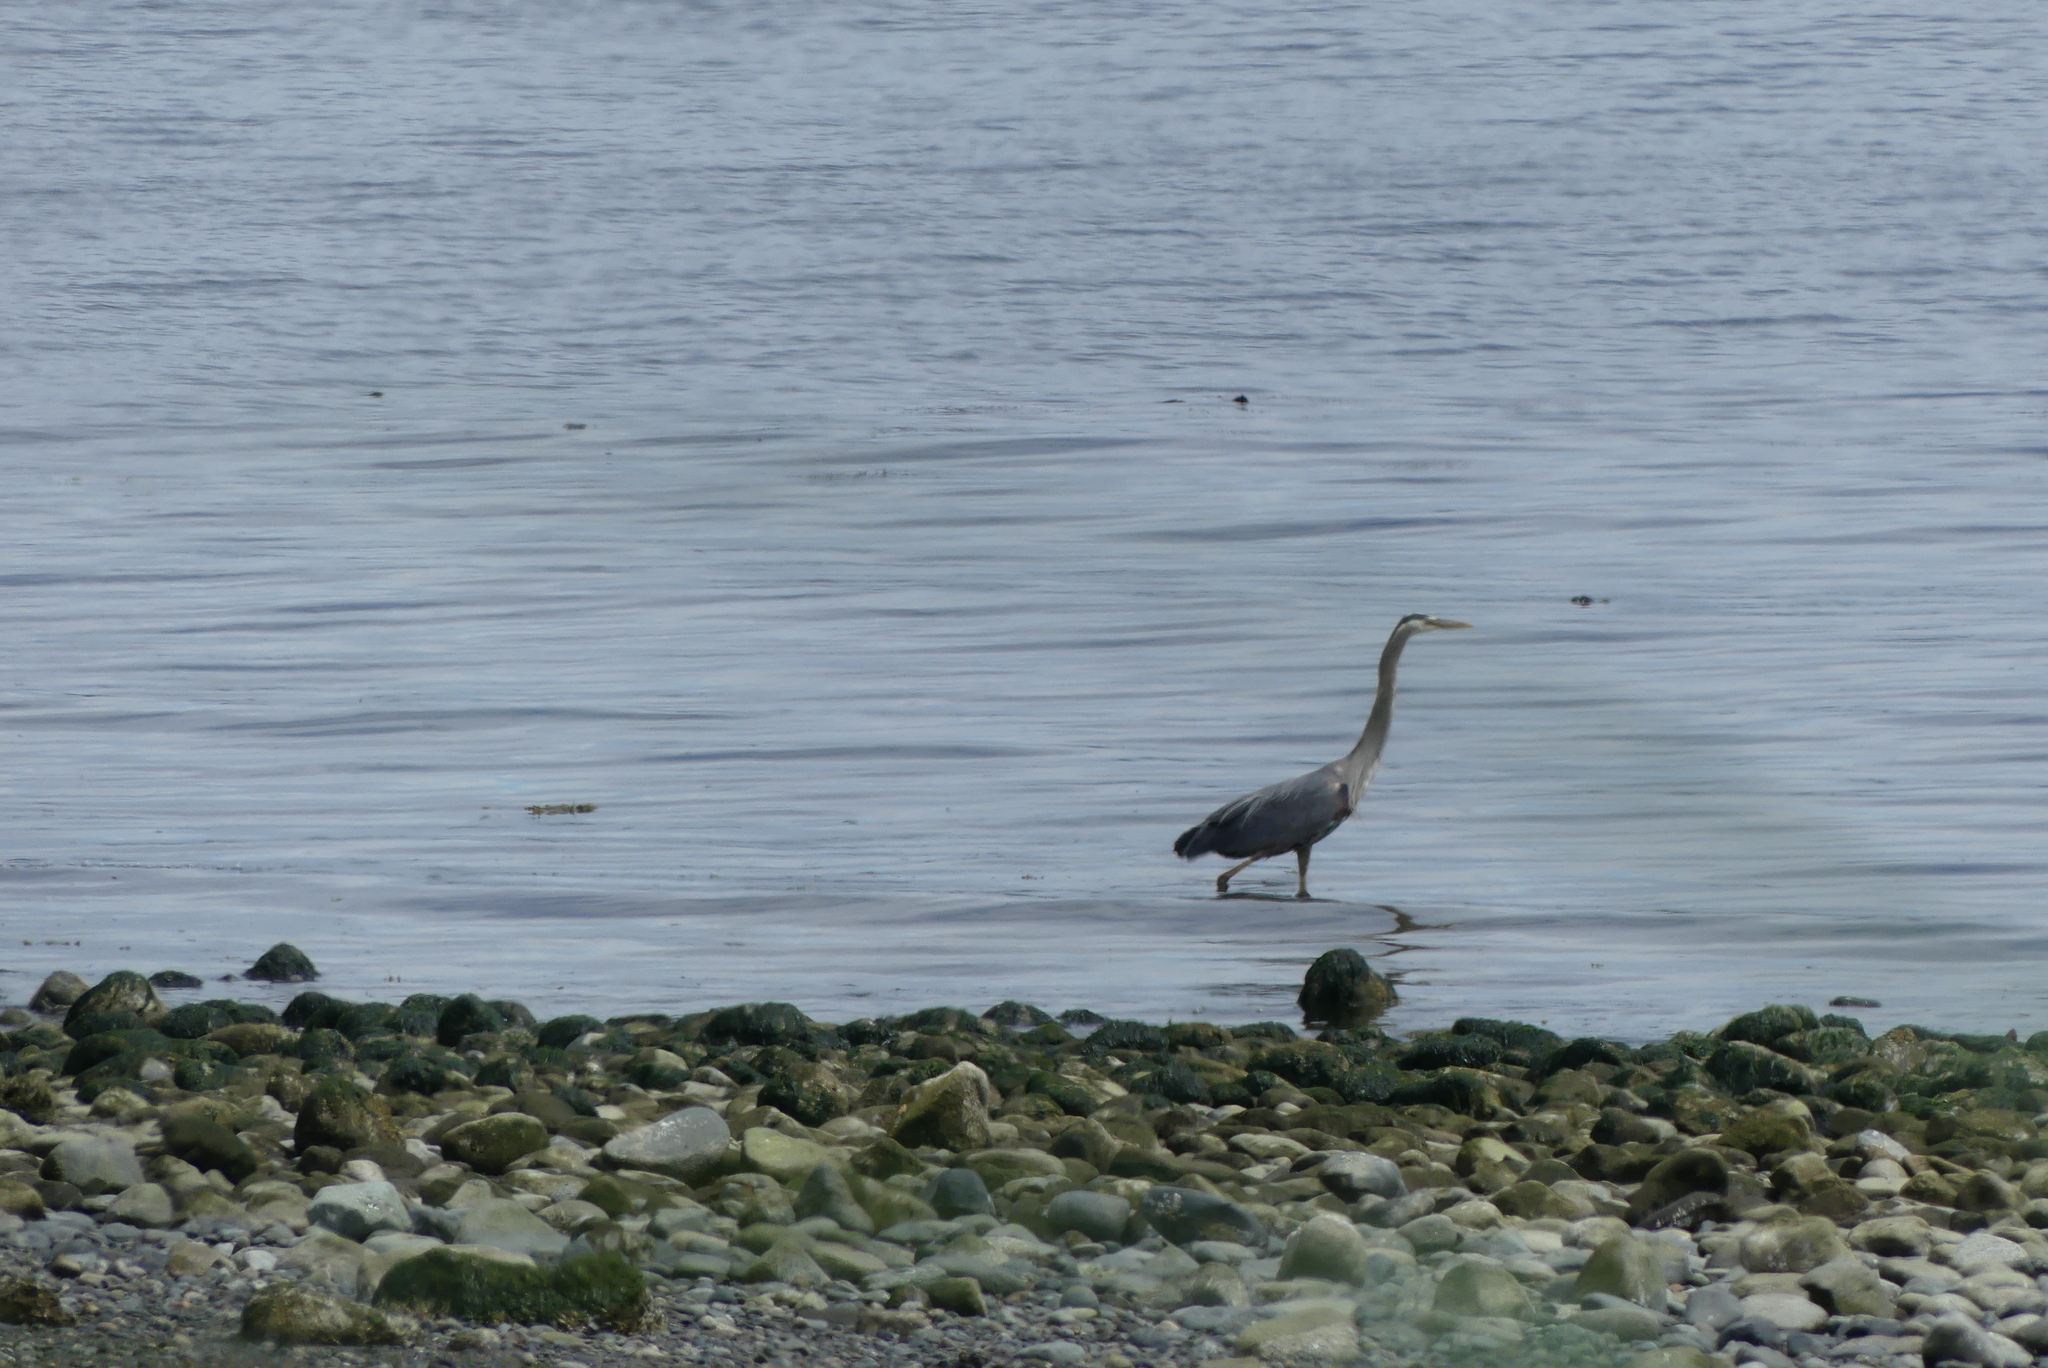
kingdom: Animalia
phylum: Chordata
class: Aves
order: Pelecaniformes
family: Ardeidae
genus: Ardea
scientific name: Ardea herodias
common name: Great blue heron
